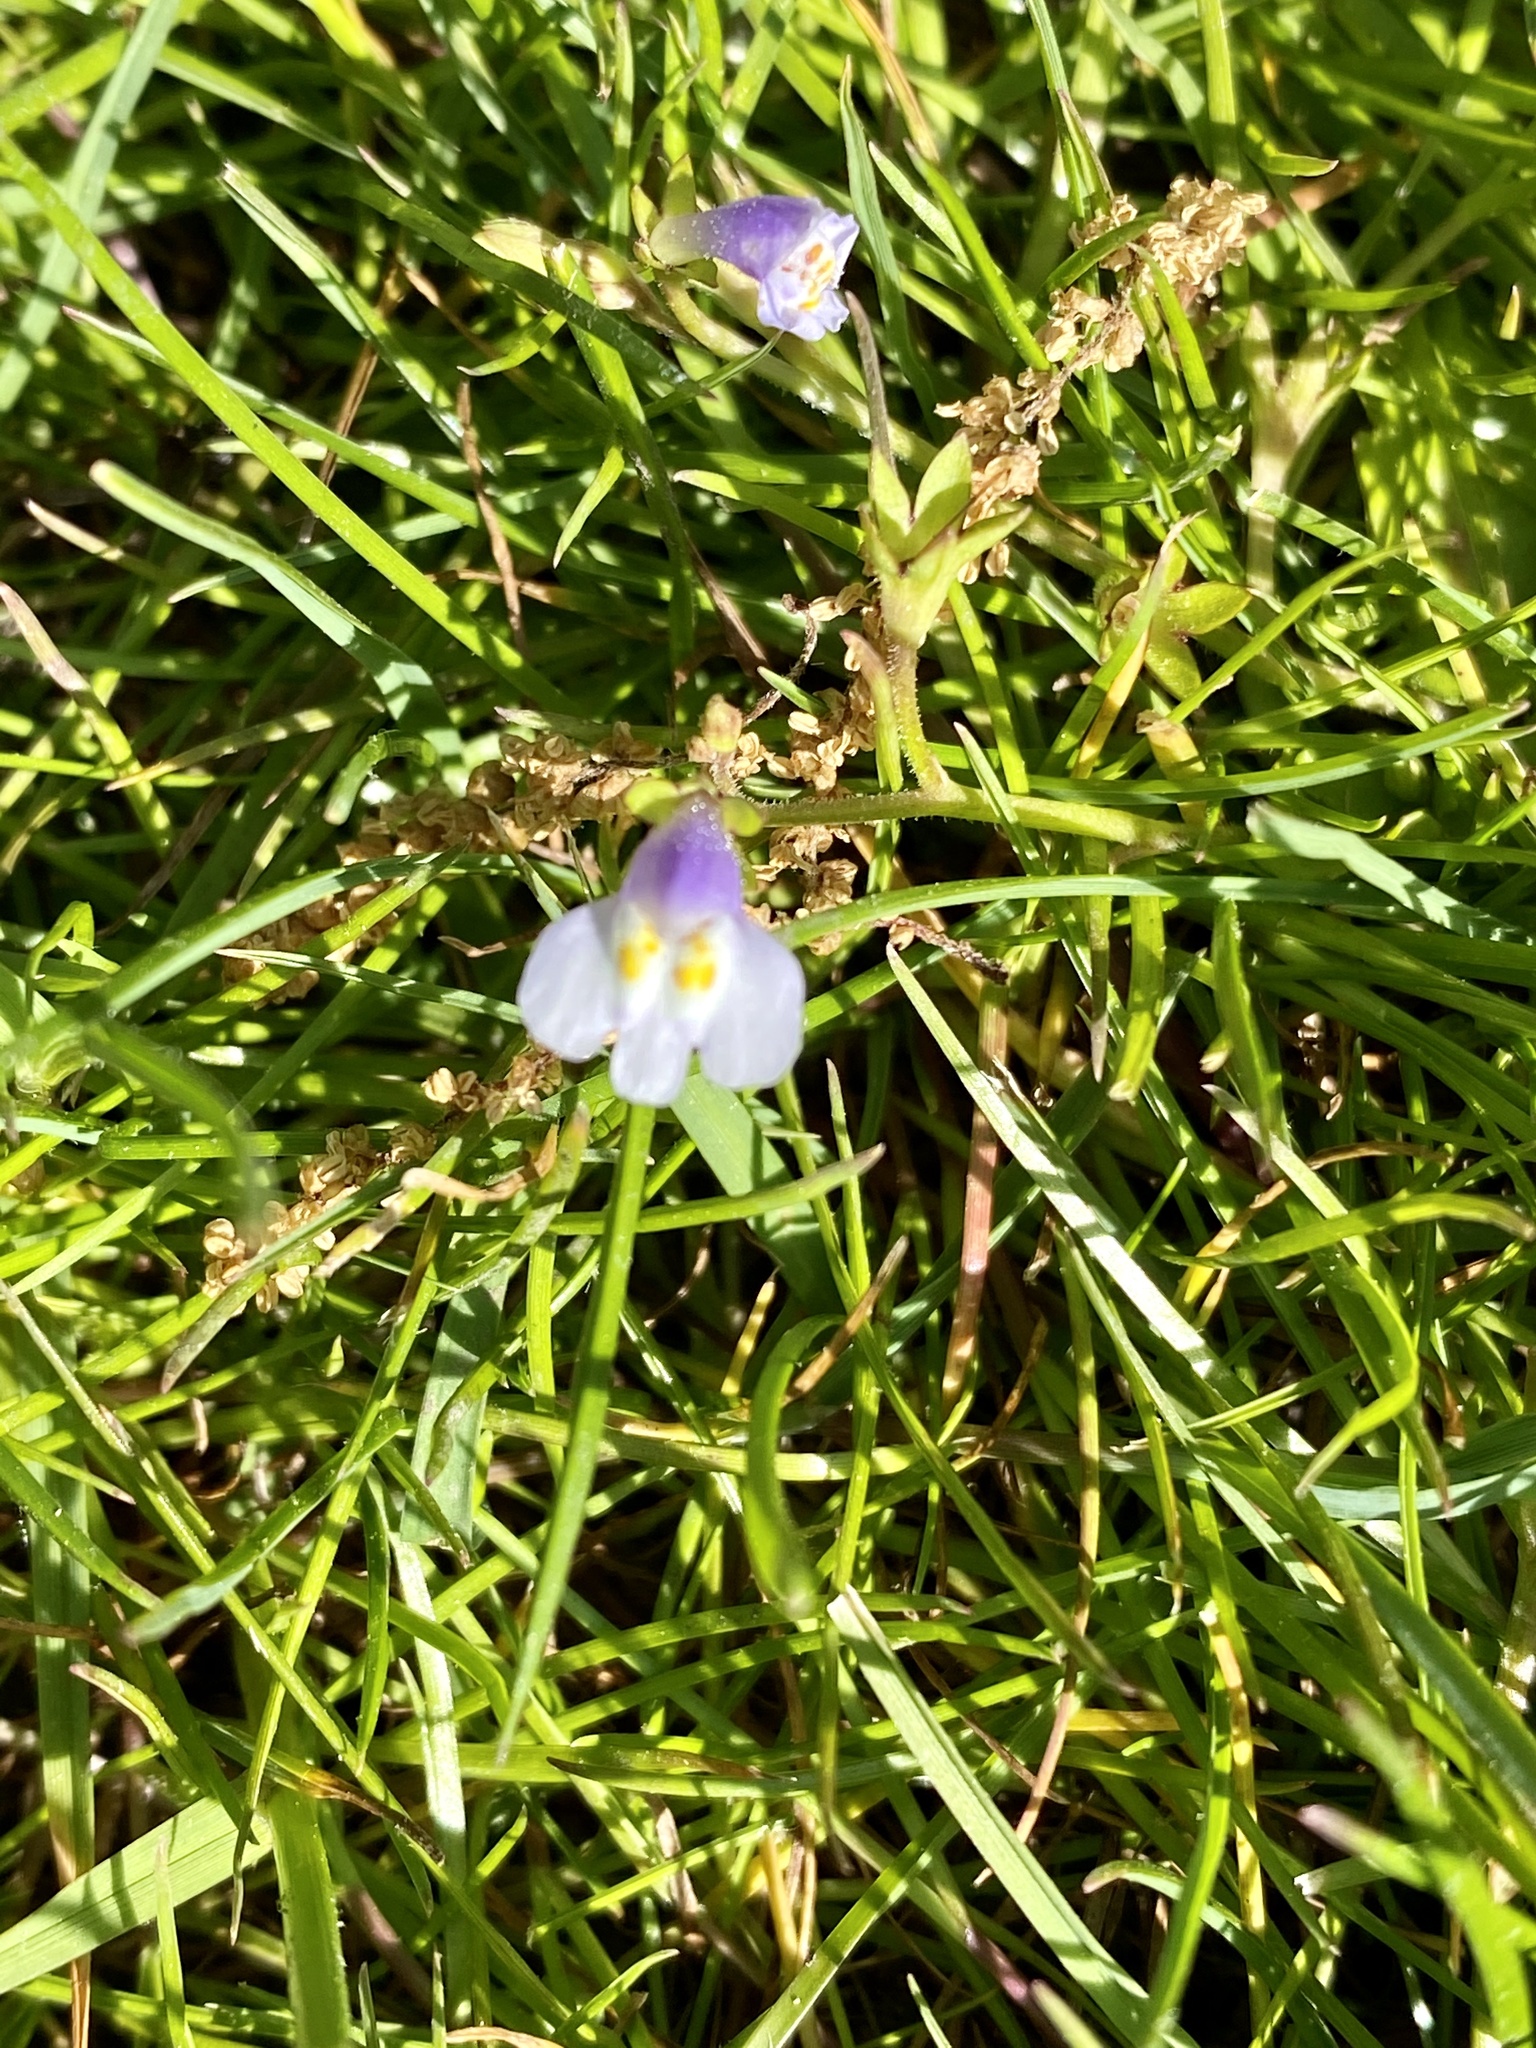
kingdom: Plantae
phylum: Tracheophyta
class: Magnoliopsida
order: Lamiales
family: Mazaceae
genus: Mazus
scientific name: Mazus pumilus
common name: Japanese mazus
